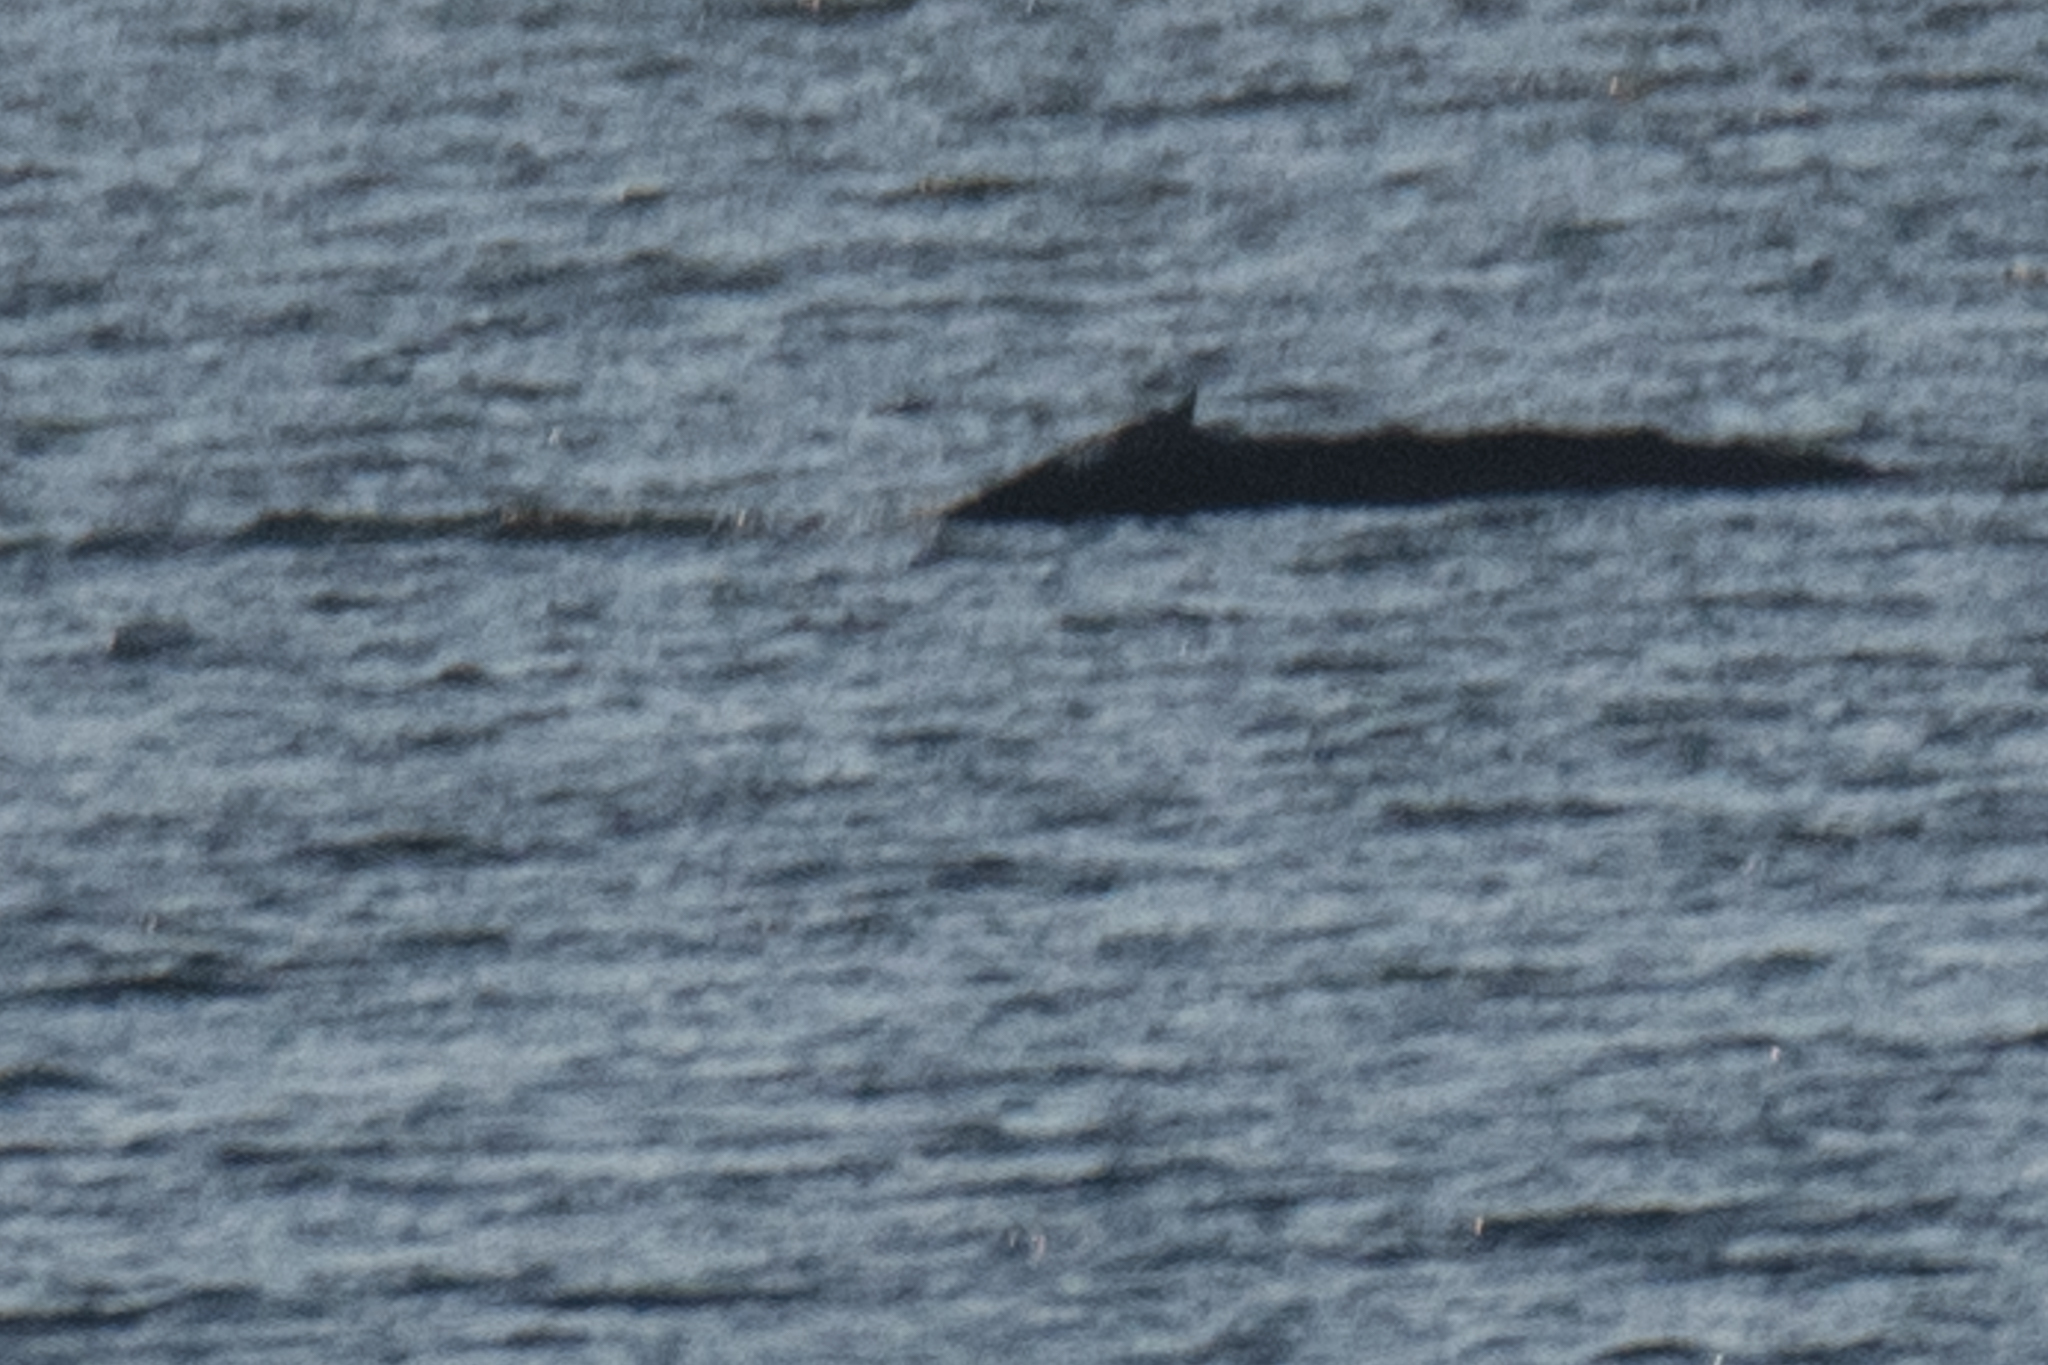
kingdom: Animalia
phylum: Chordata
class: Mammalia
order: Cetacea
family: Balaenopteridae
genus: Megaptera
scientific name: Megaptera novaeangliae
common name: Humpback whale
